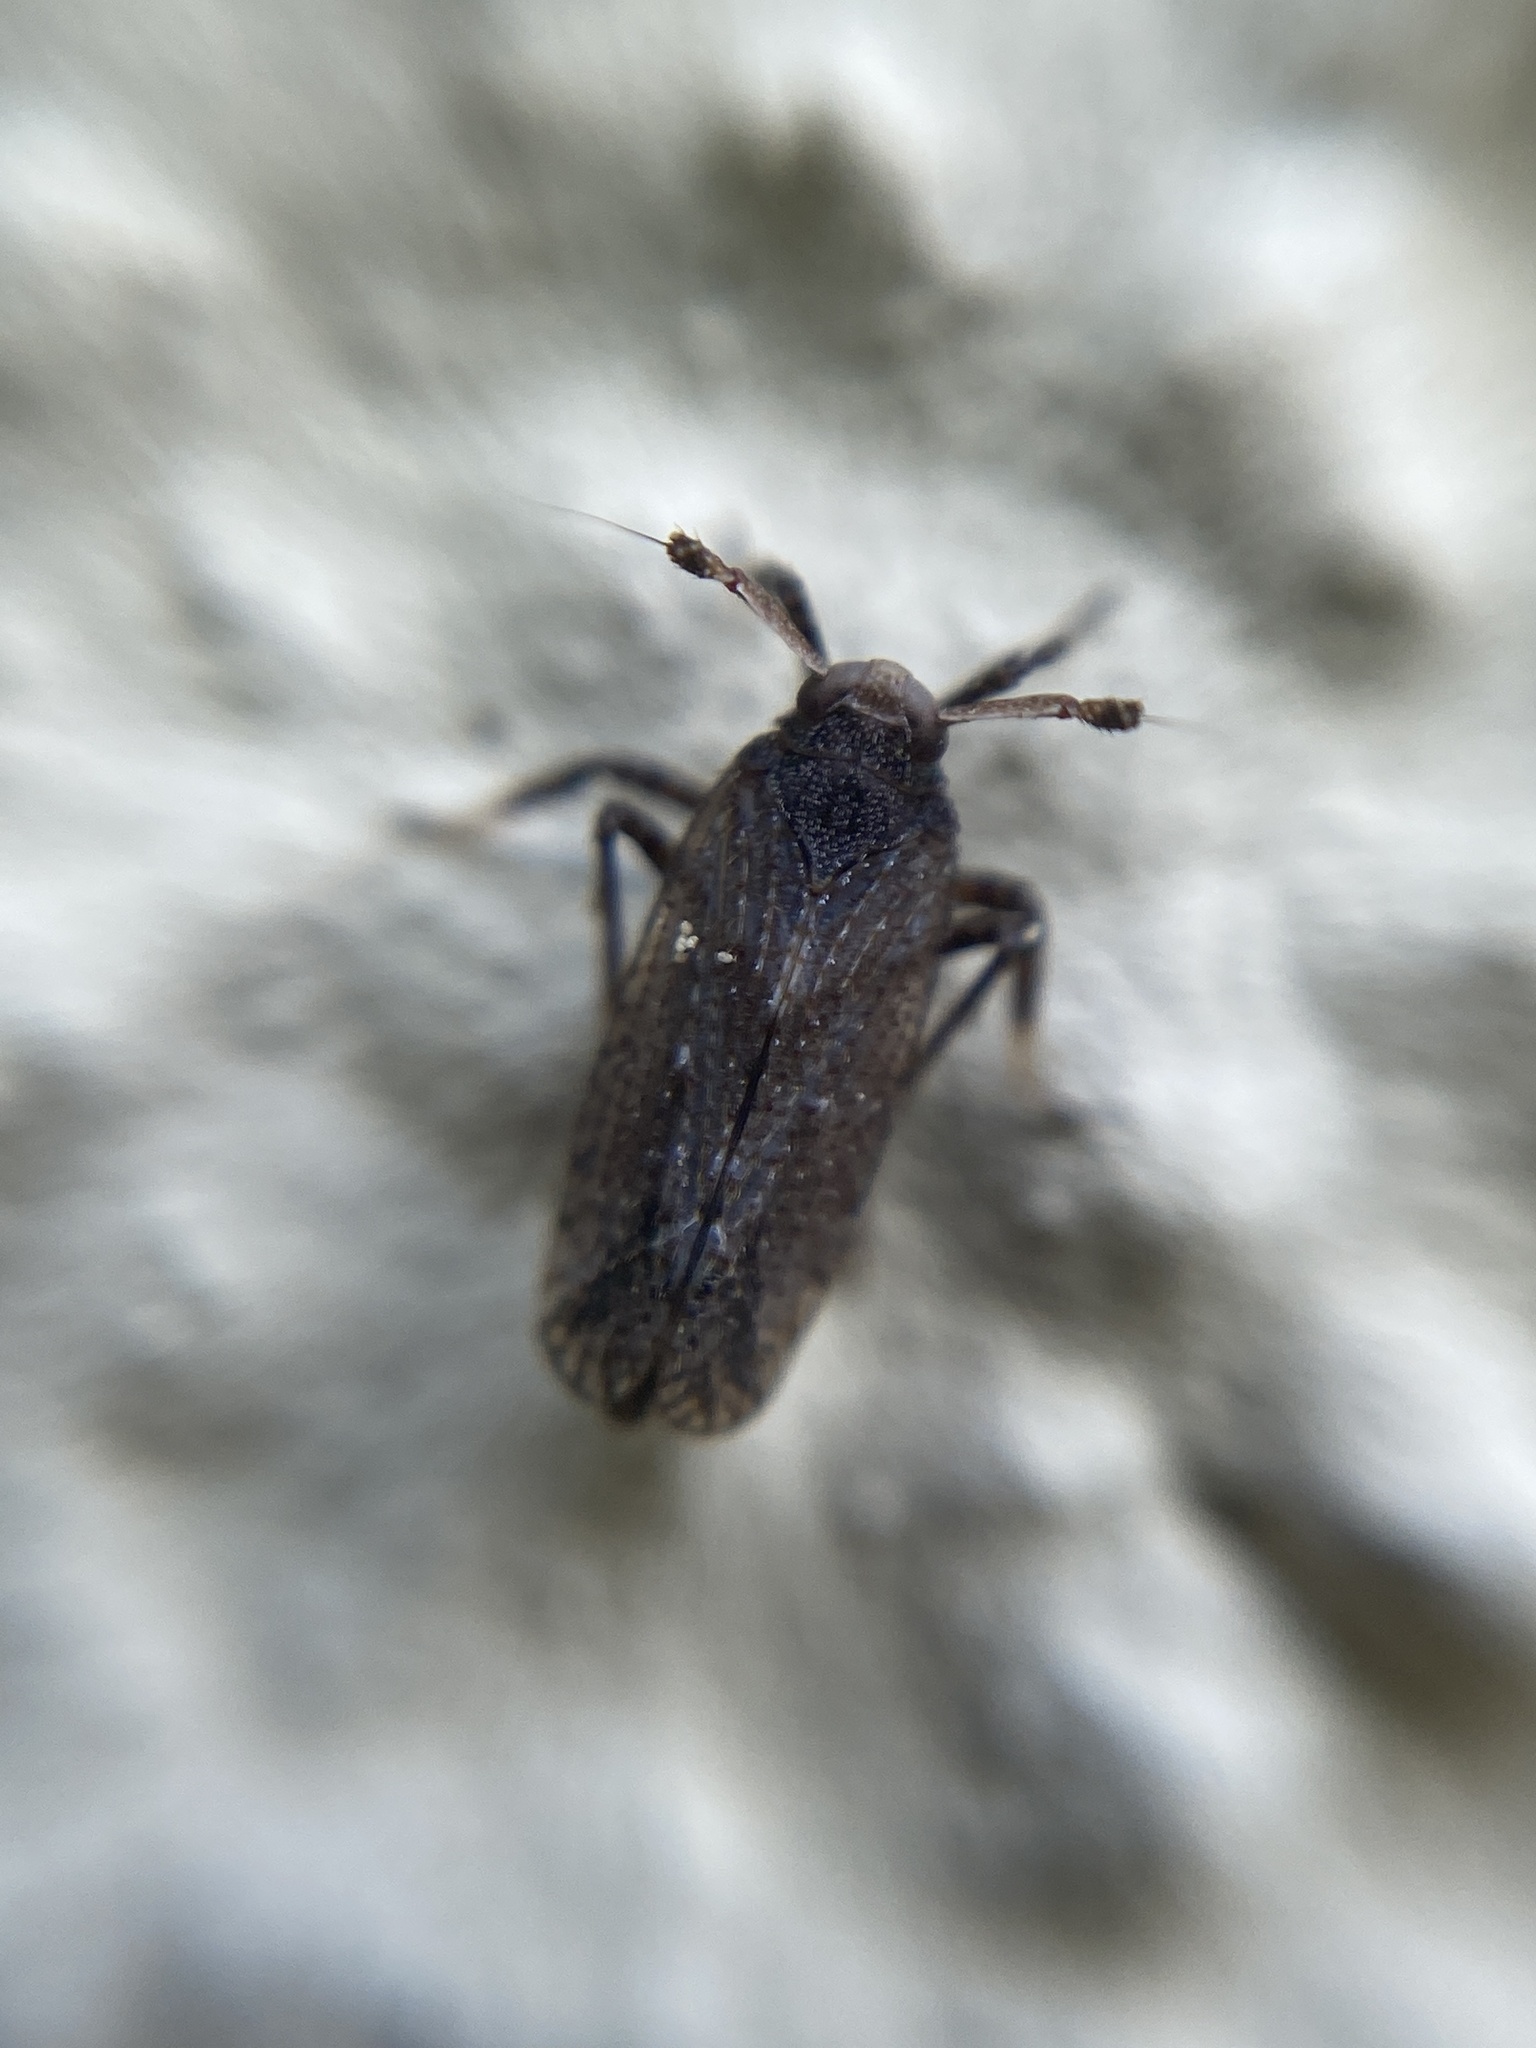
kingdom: Animalia
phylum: Arthropoda
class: Insecta
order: Hemiptera
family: Delphacidae
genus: Asiraca
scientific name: Asiraca clavicornis
